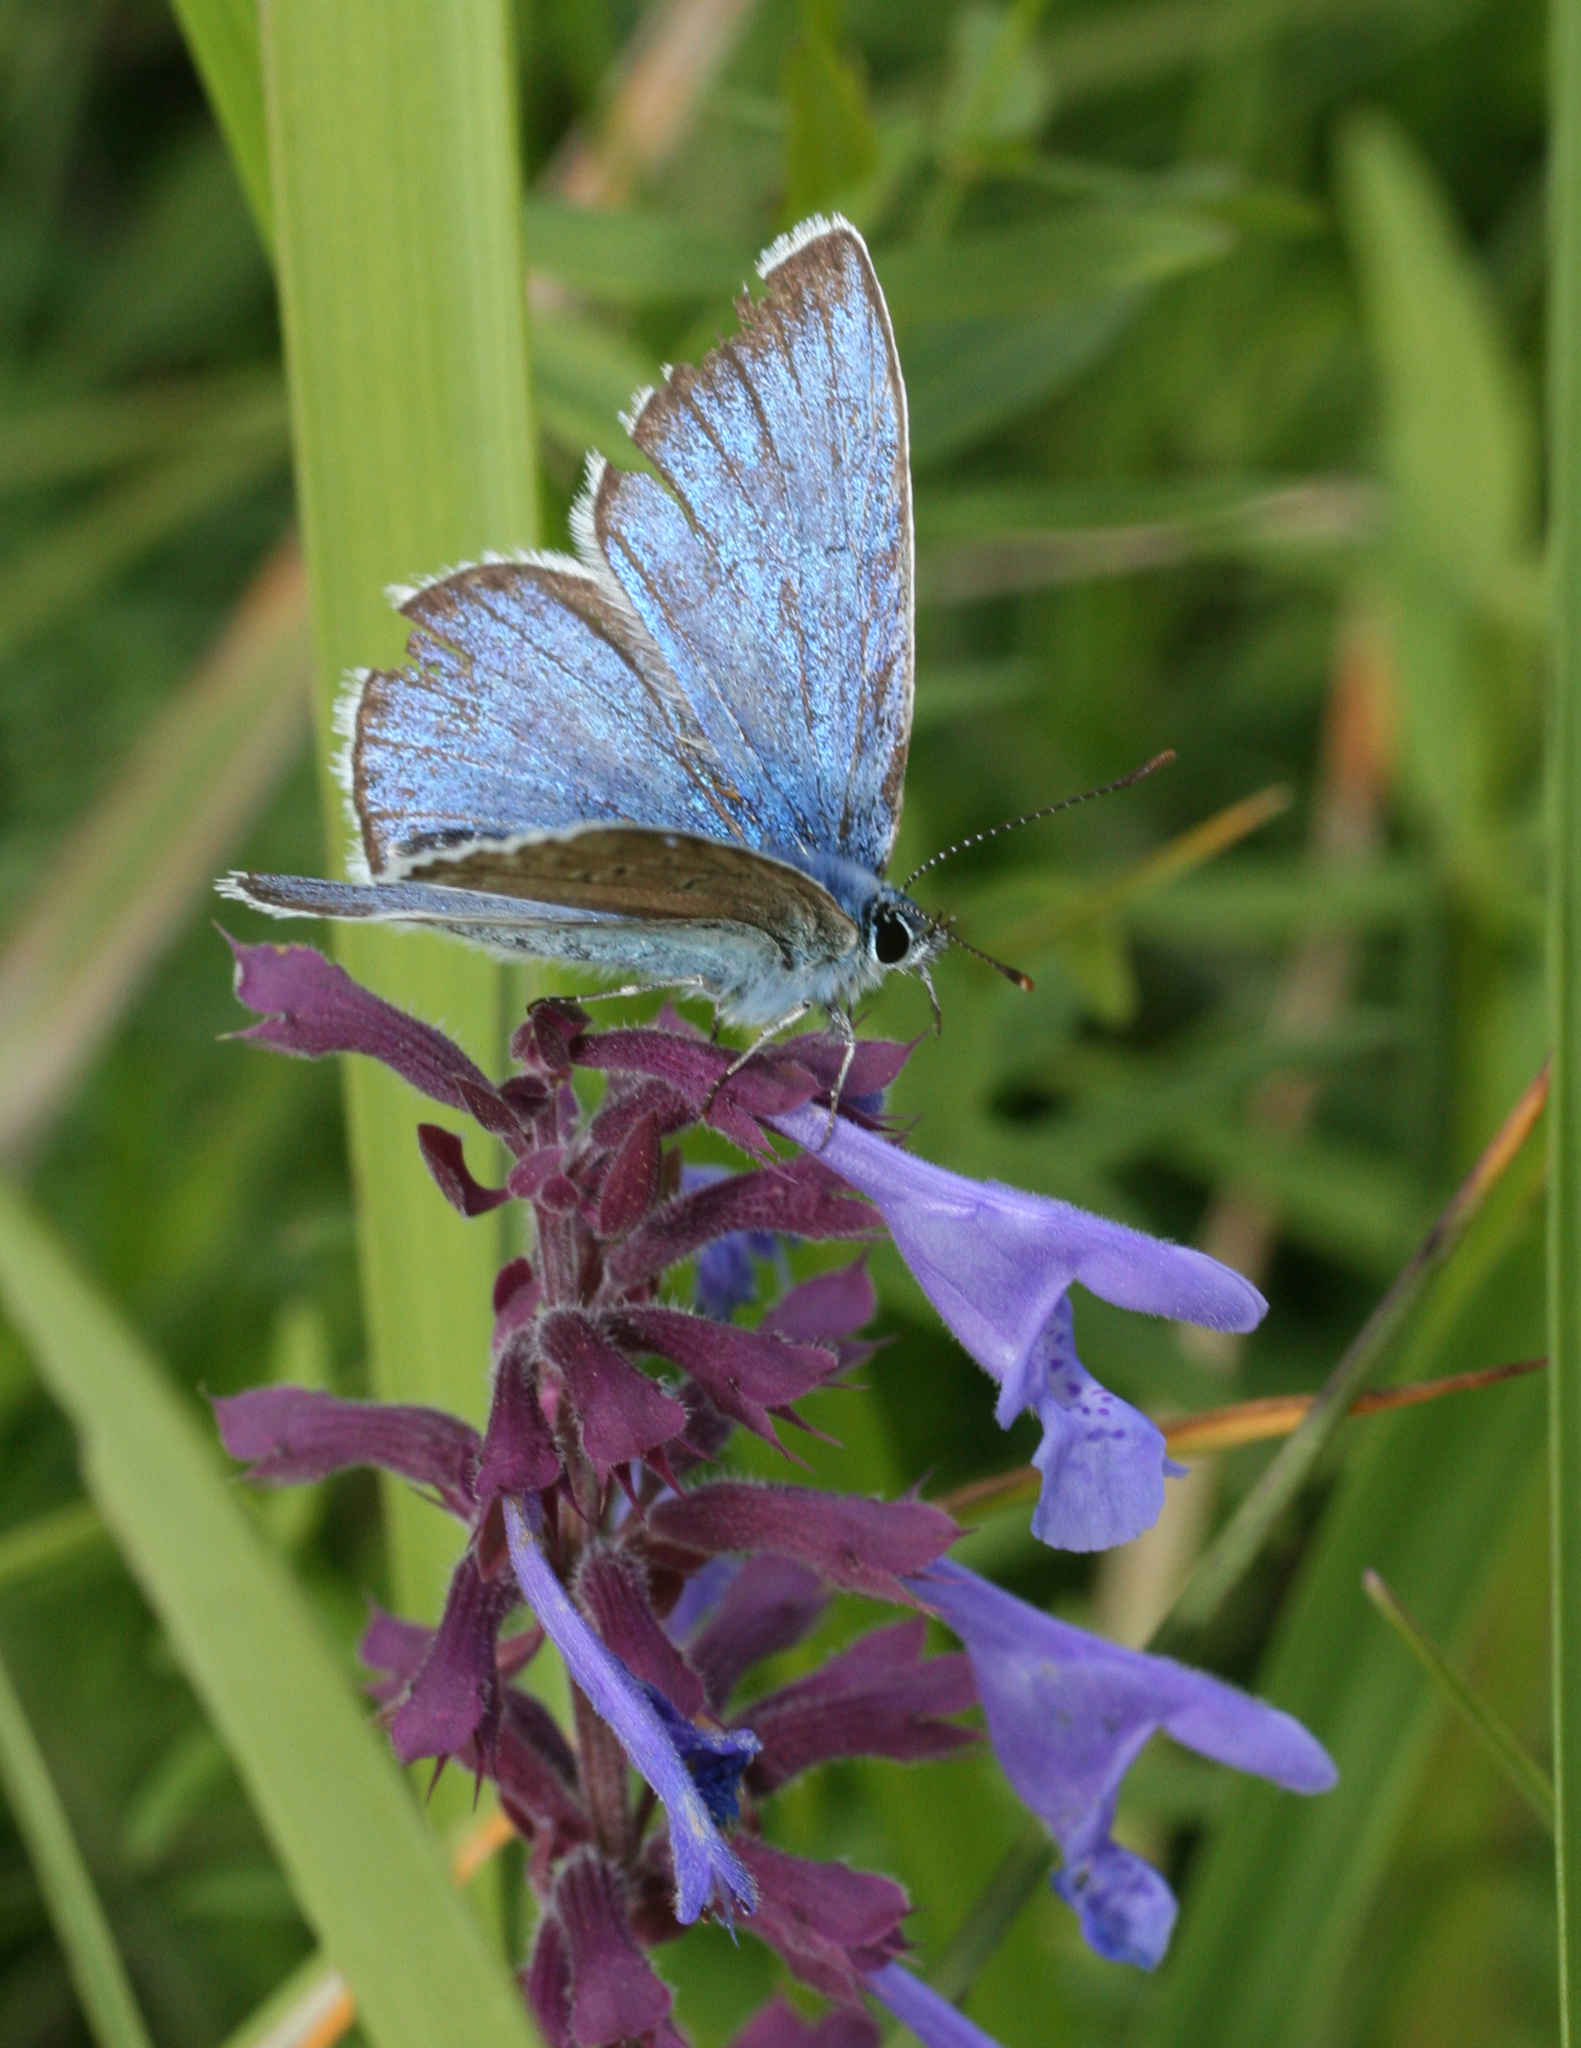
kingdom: Animalia
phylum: Arthropoda
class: Insecta
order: Lepidoptera
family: Lycaenidae
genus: Plebejus
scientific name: Plebejus amanda
